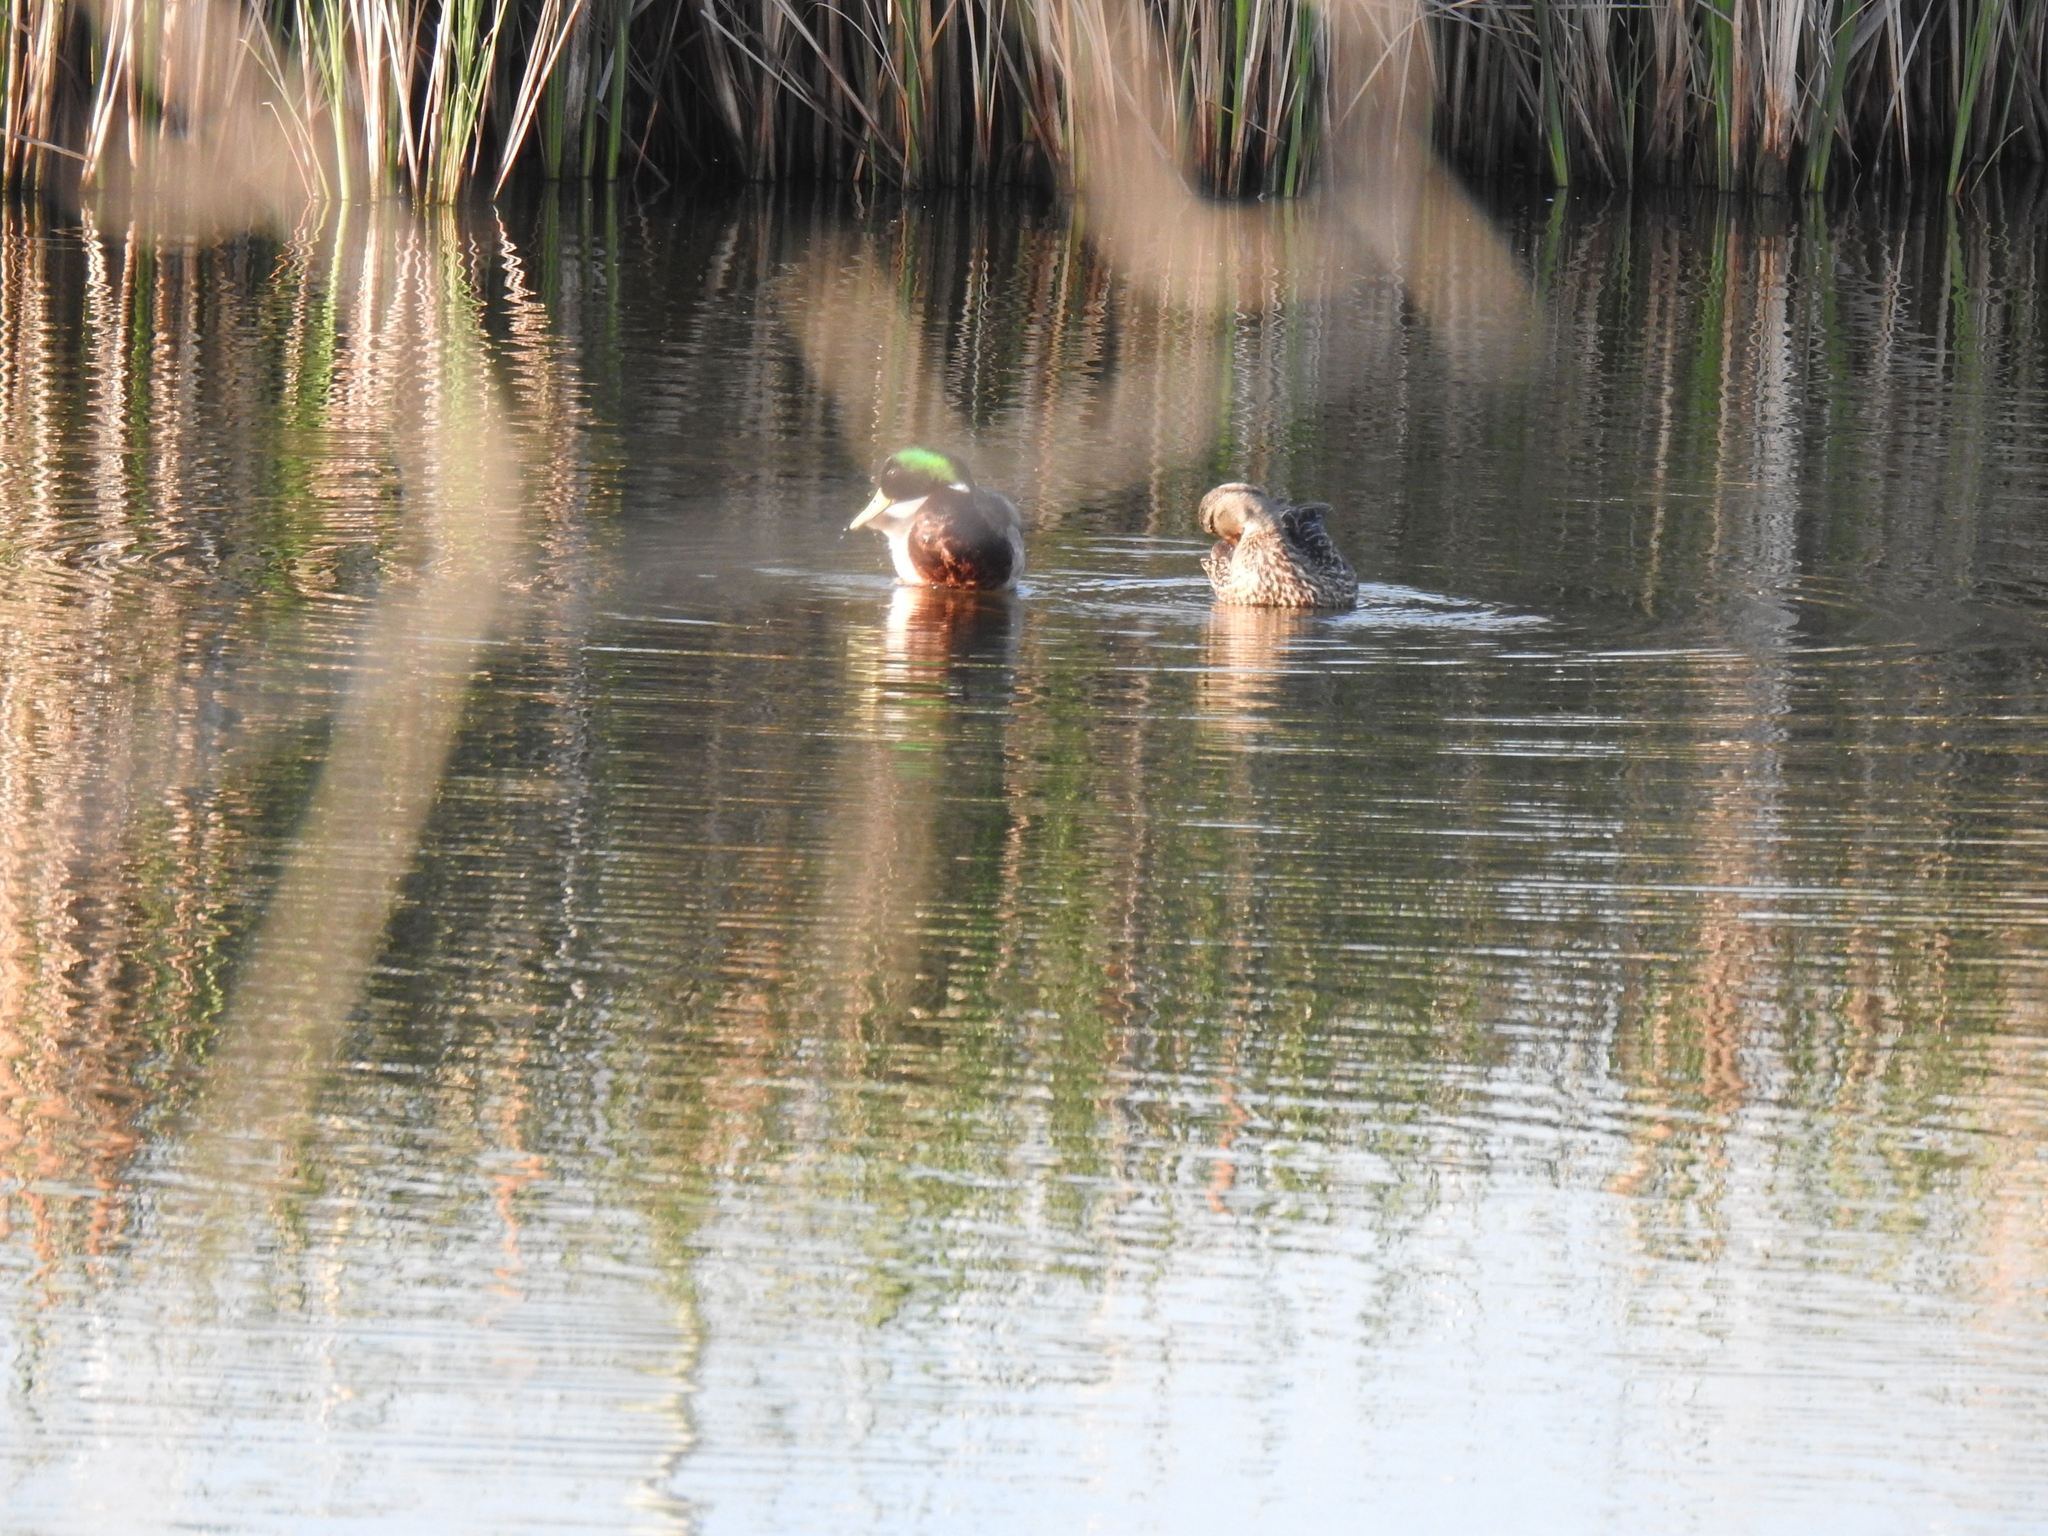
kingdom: Animalia
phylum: Chordata
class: Aves
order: Anseriformes
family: Anatidae
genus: Anas
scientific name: Anas platyrhynchos
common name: Mallard
